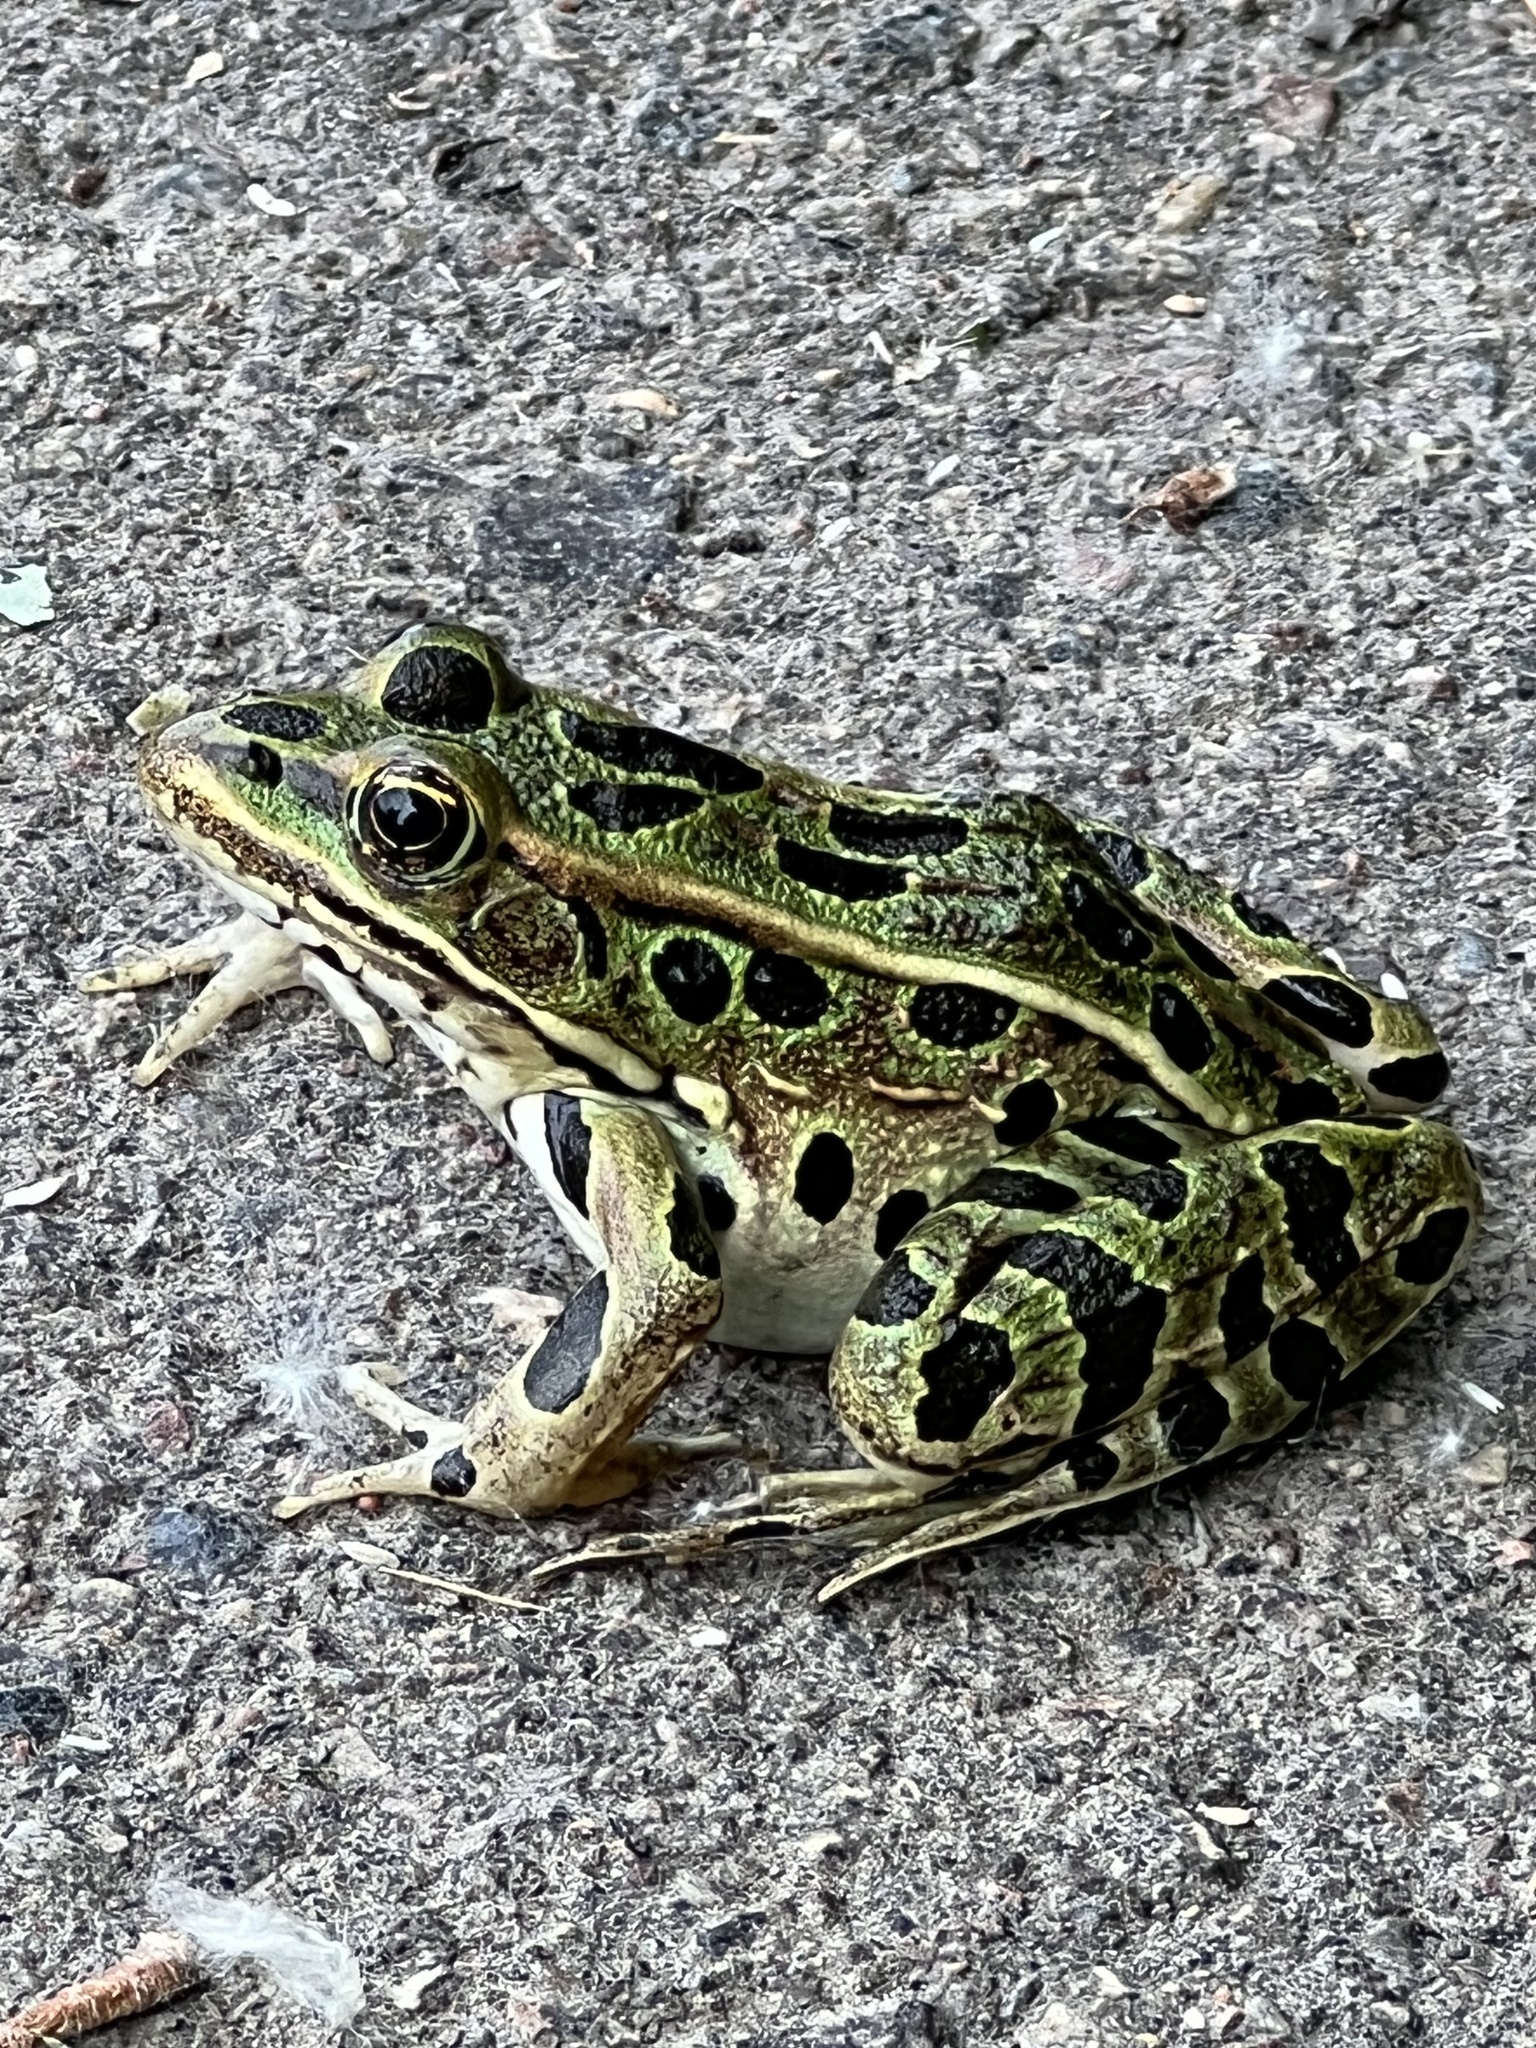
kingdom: Animalia
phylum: Chordata
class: Amphibia
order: Anura
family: Ranidae
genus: Lithobates
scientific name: Lithobates pipiens
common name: Northern leopard frog
